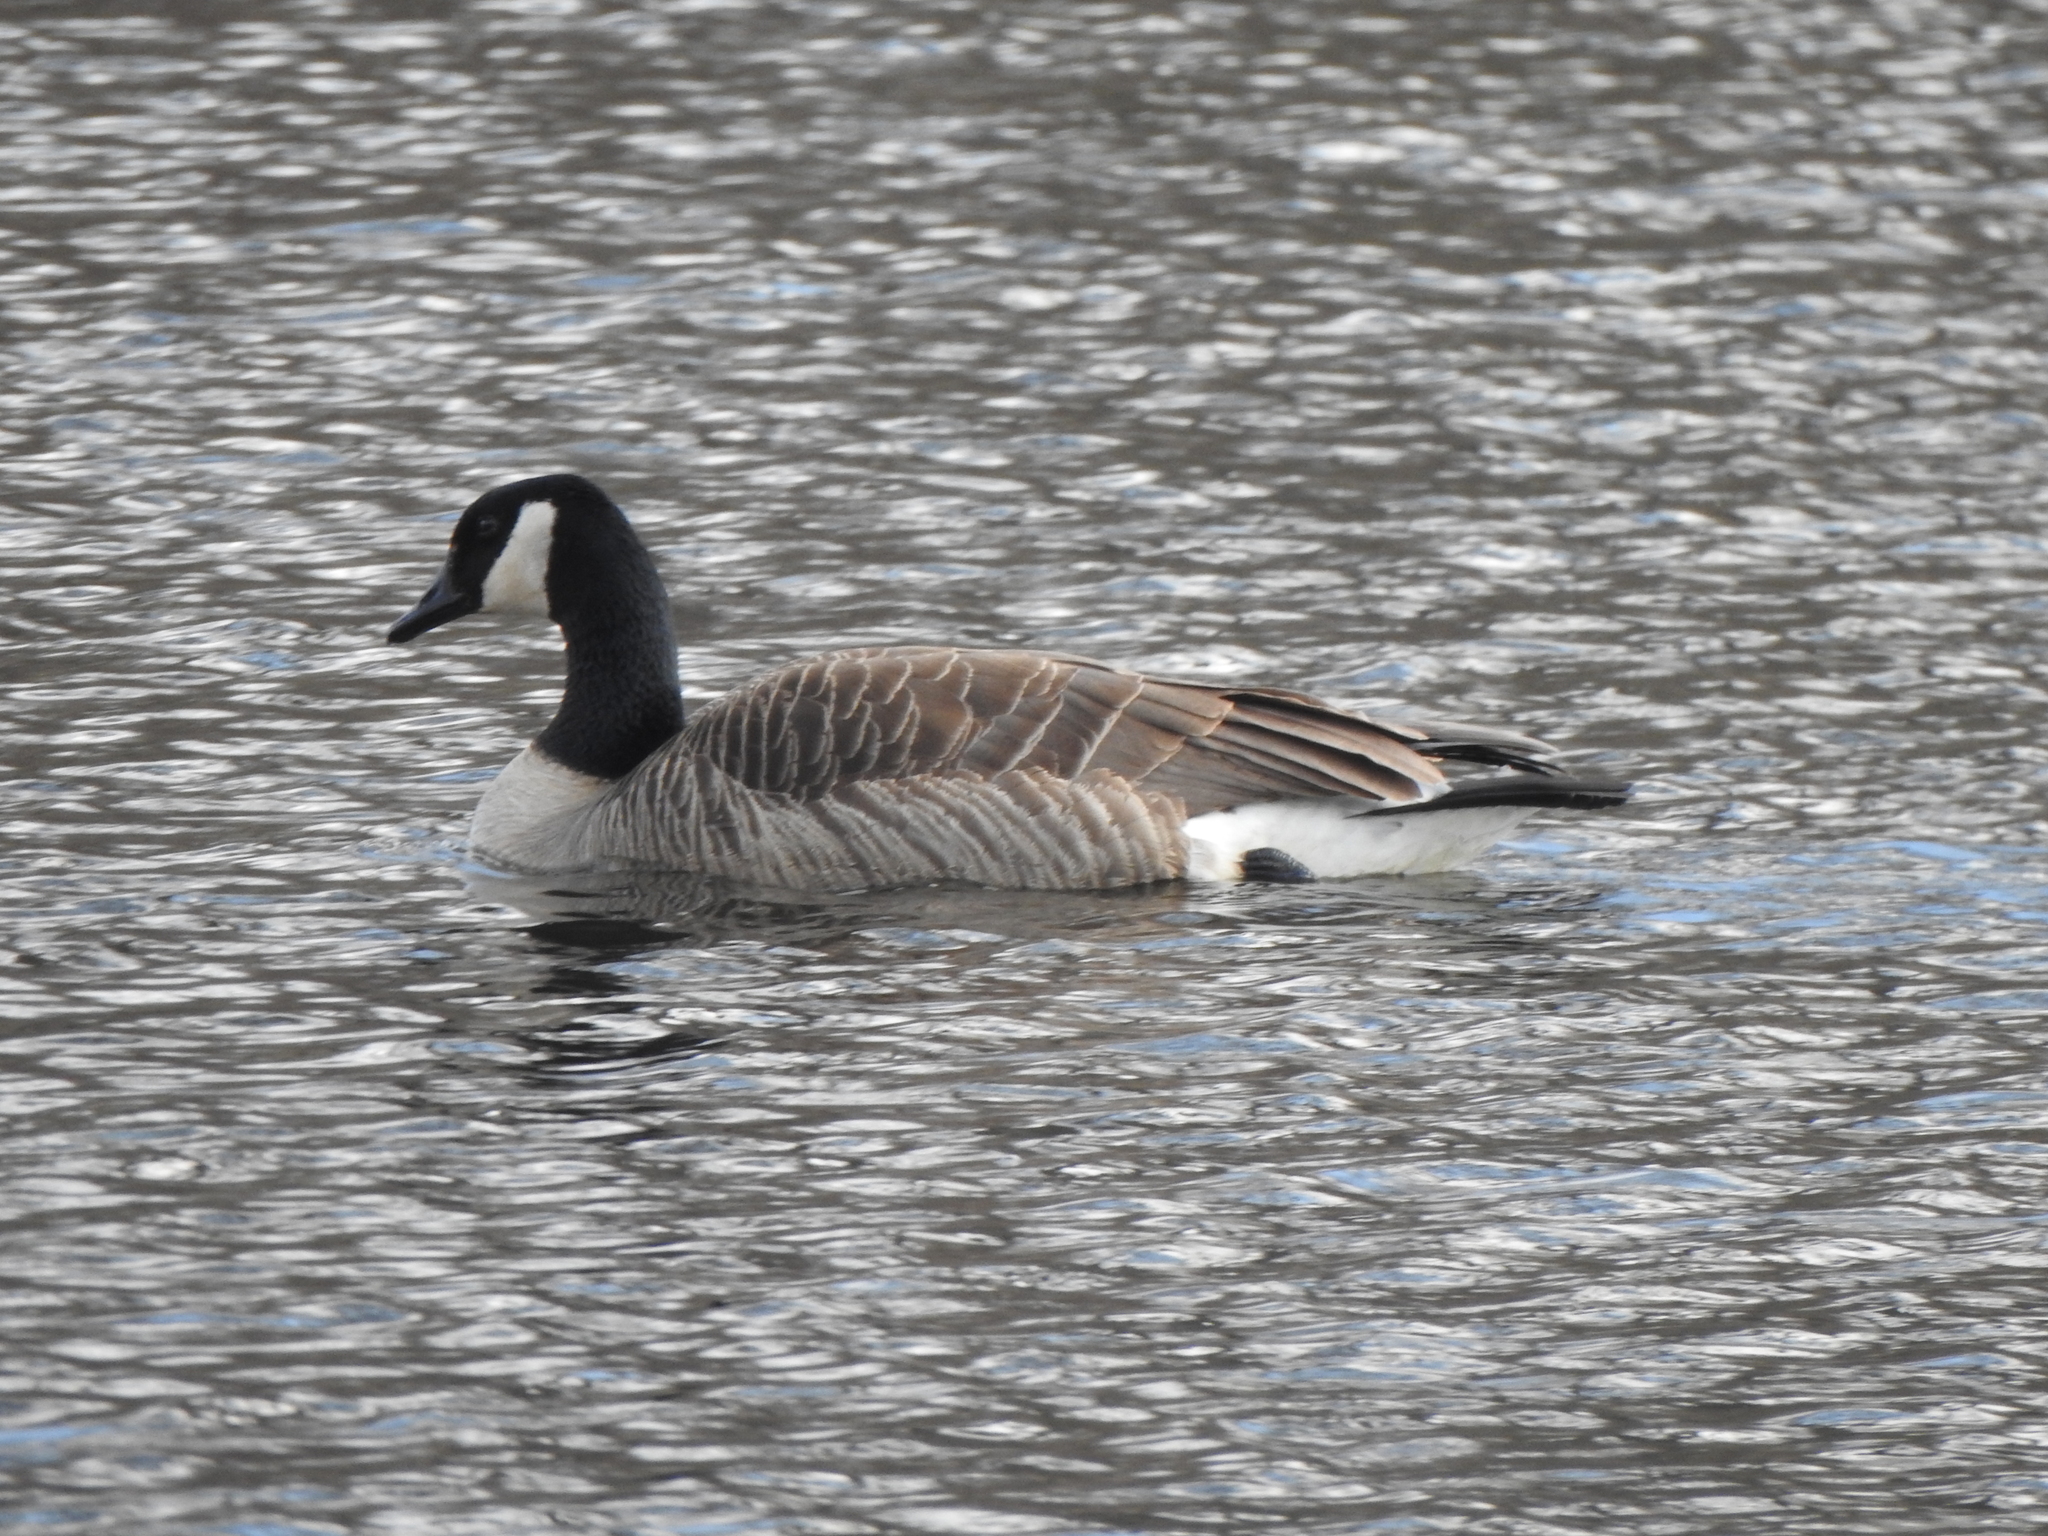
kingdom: Animalia
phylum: Chordata
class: Aves
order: Anseriformes
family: Anatidae
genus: Branta
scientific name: Branta canadensis
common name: Canada goose
